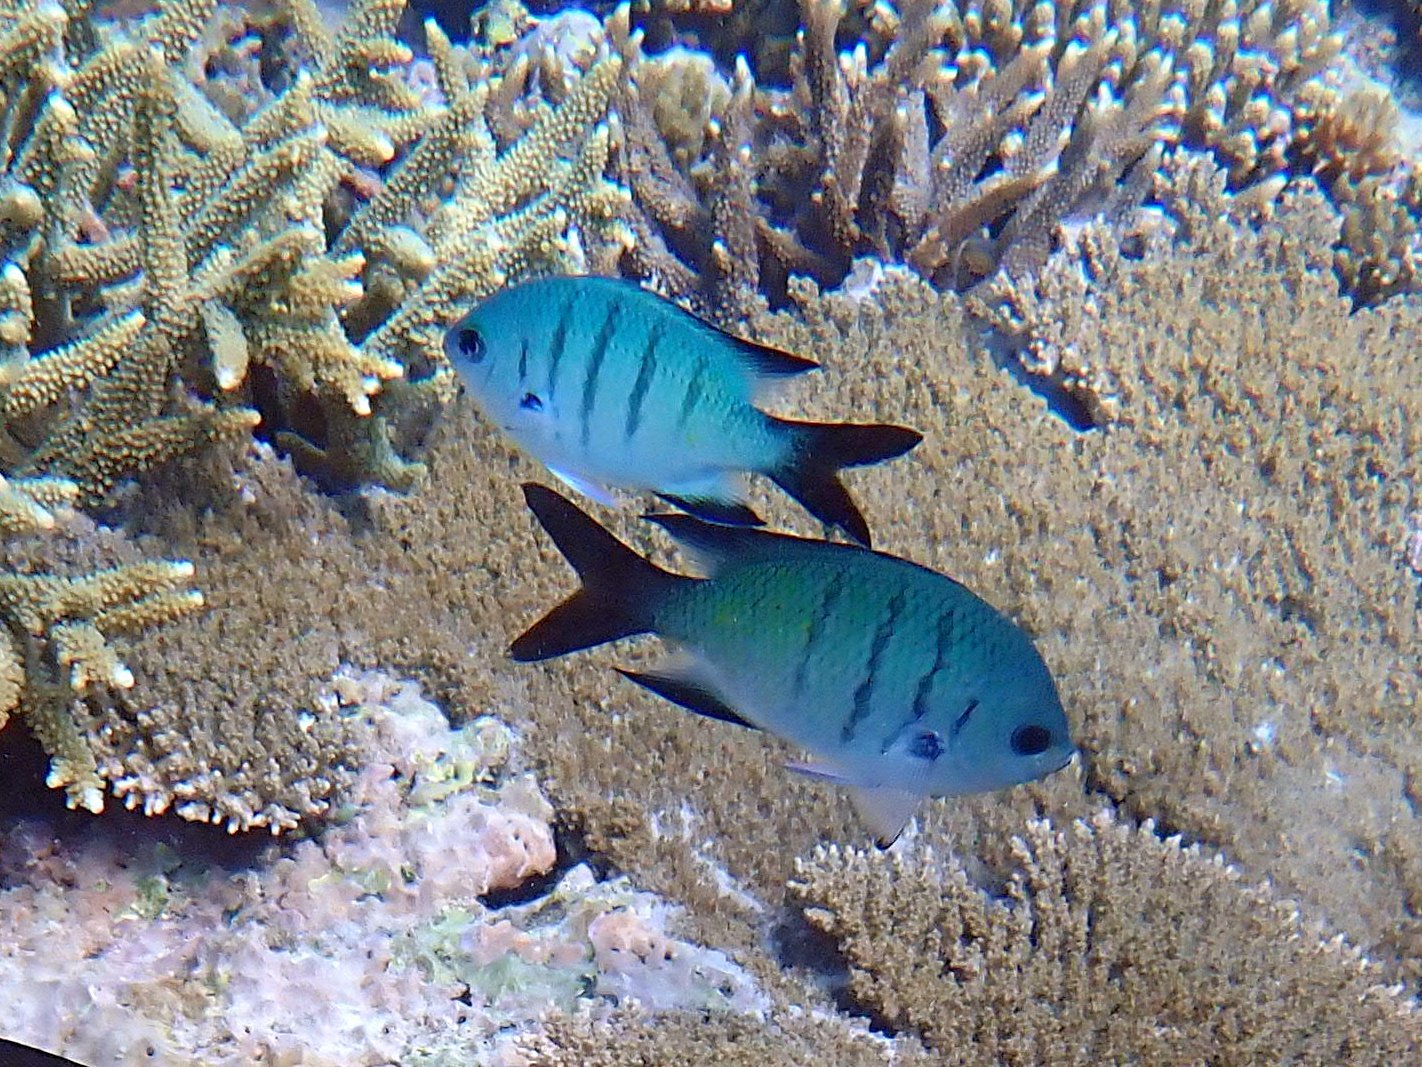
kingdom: Animalia
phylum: Chordata
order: Perciformes
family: Pomacentridae
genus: Abudefduf
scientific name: Abudefduf whitleyi
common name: Whitley's seargent
